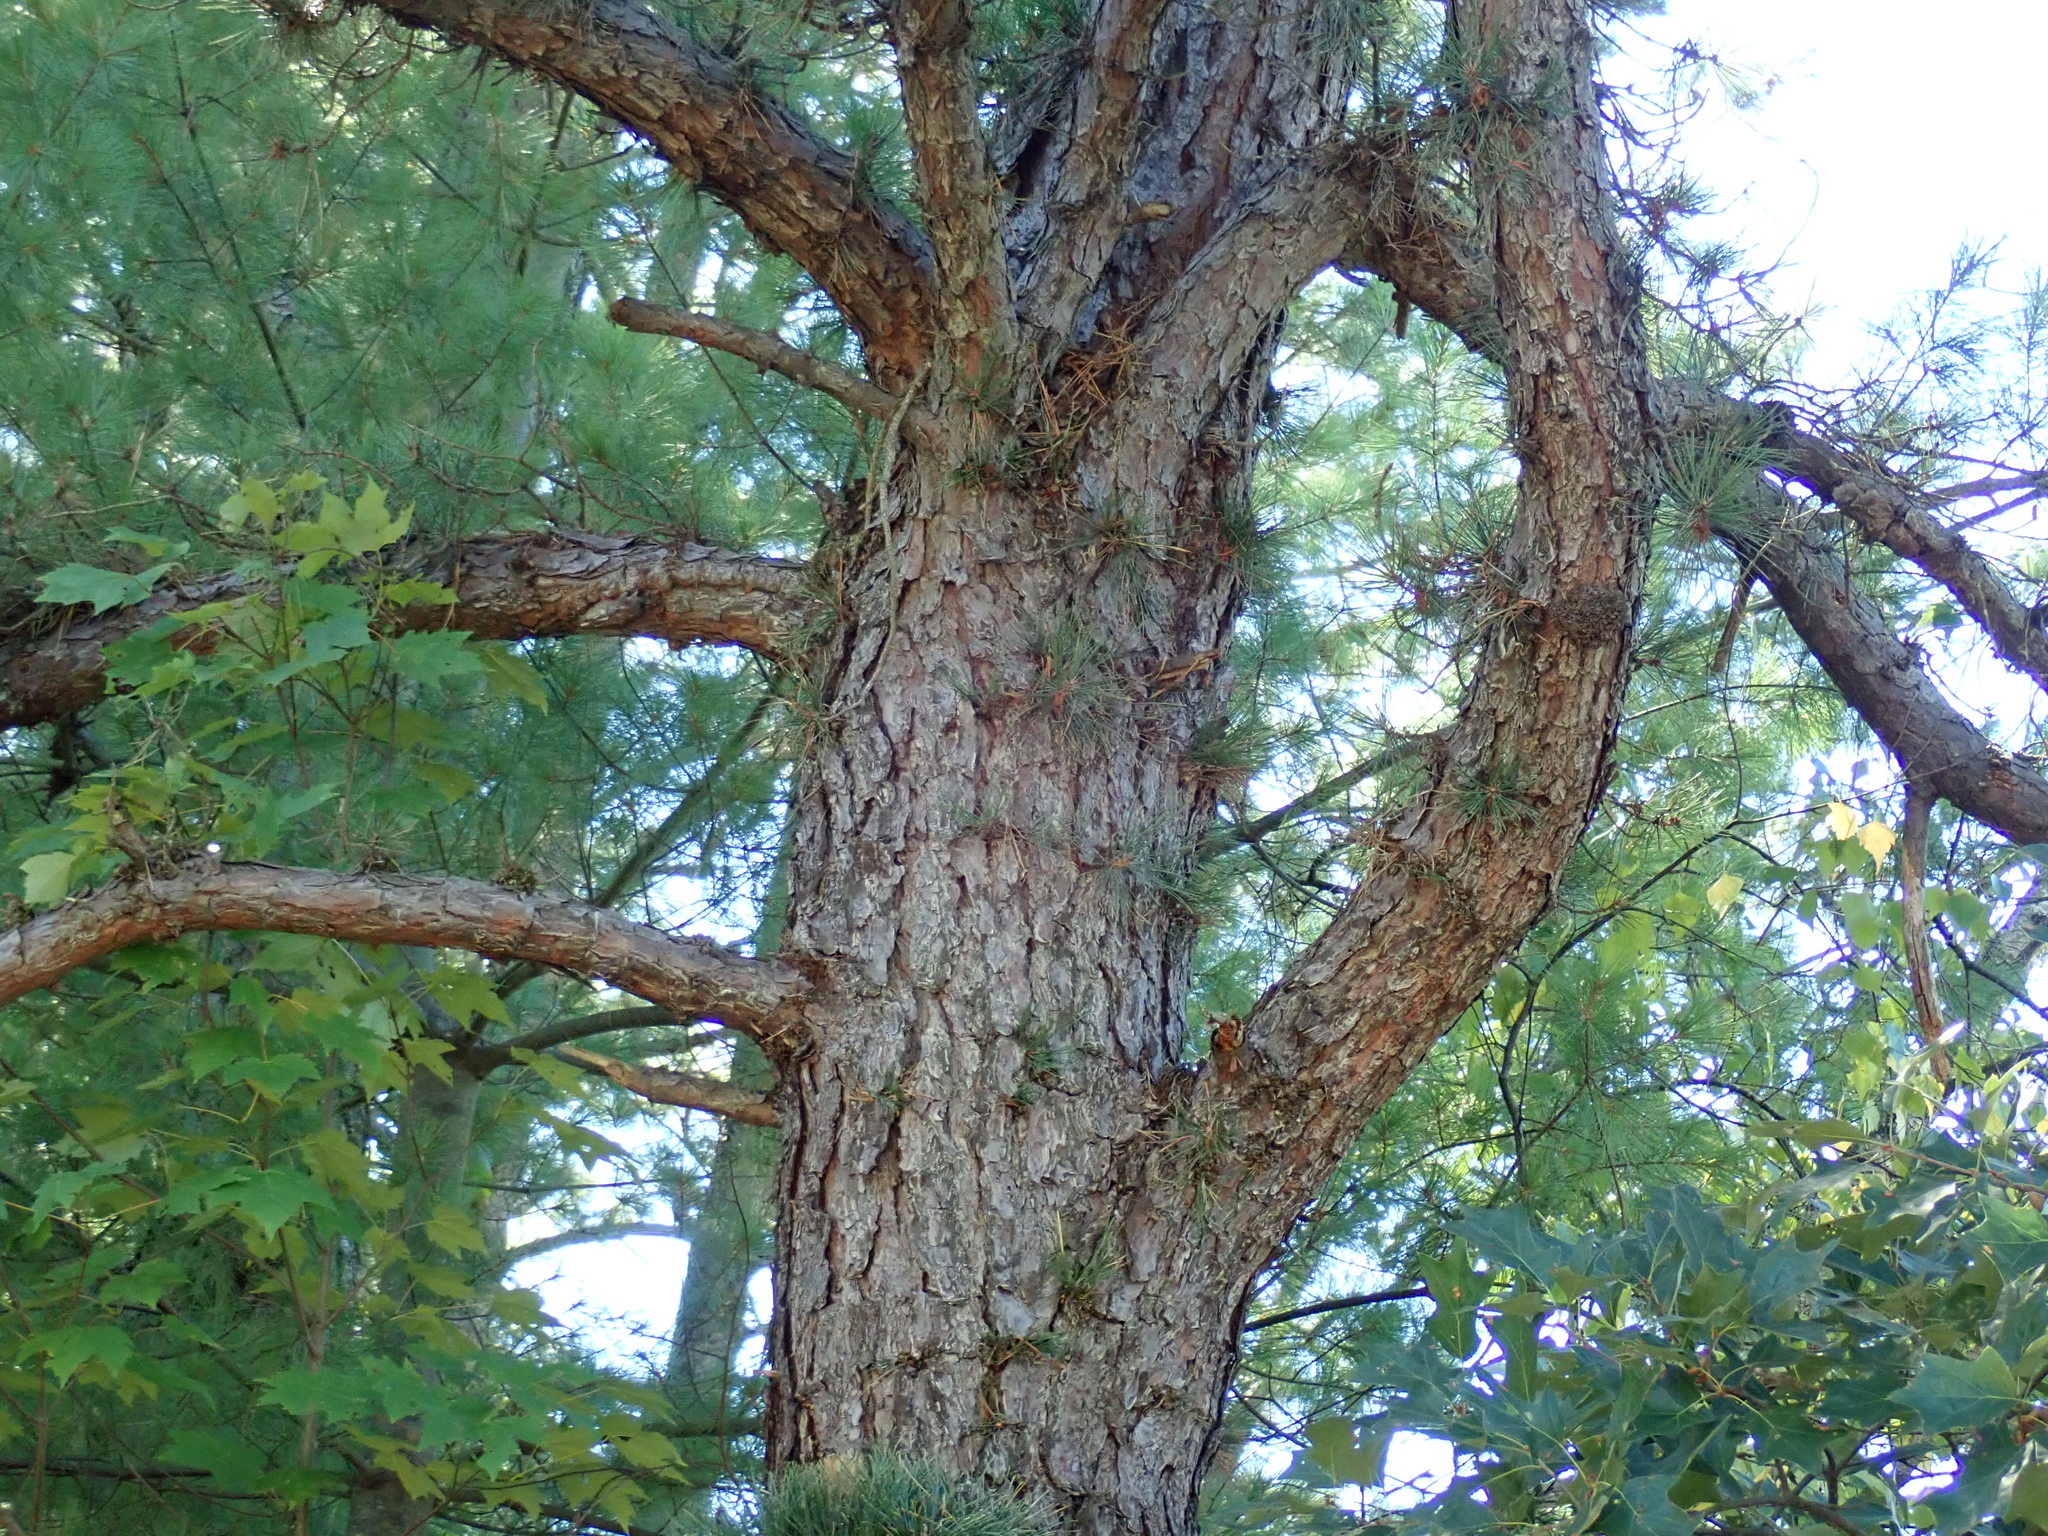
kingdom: Plantae
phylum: Tracheophyta
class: Pinopsida
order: Pinales
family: Pinaceae
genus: Pinus
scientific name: Pinus rigida
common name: Pitch pine
